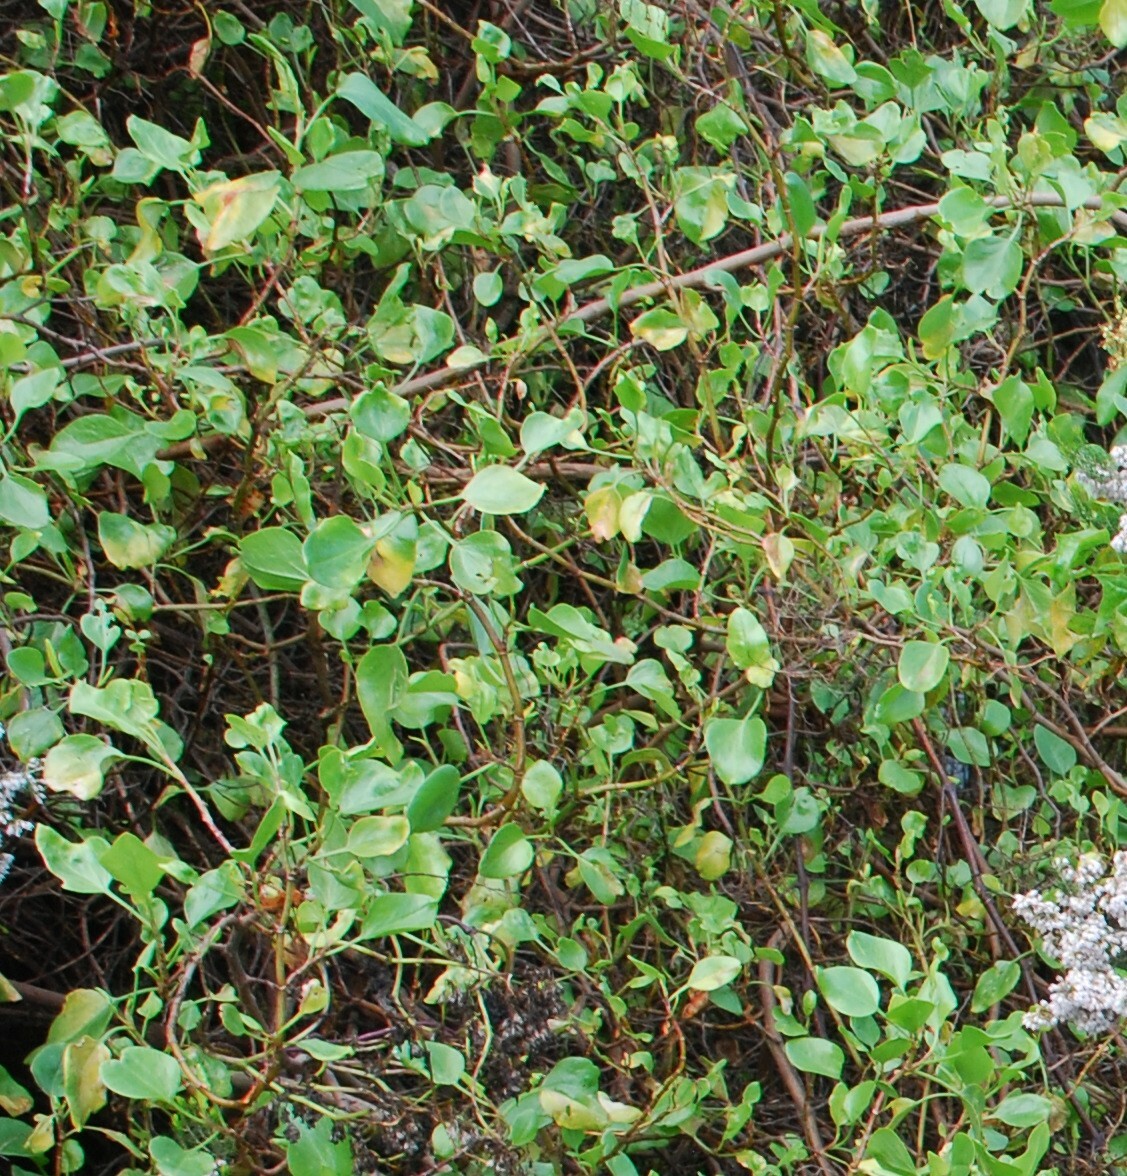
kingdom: Plantae
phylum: Tracheophyta
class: Magnoliopsida
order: Caryophyllales
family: Polygonaceae
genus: Rumex
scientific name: Rumex lunaria
